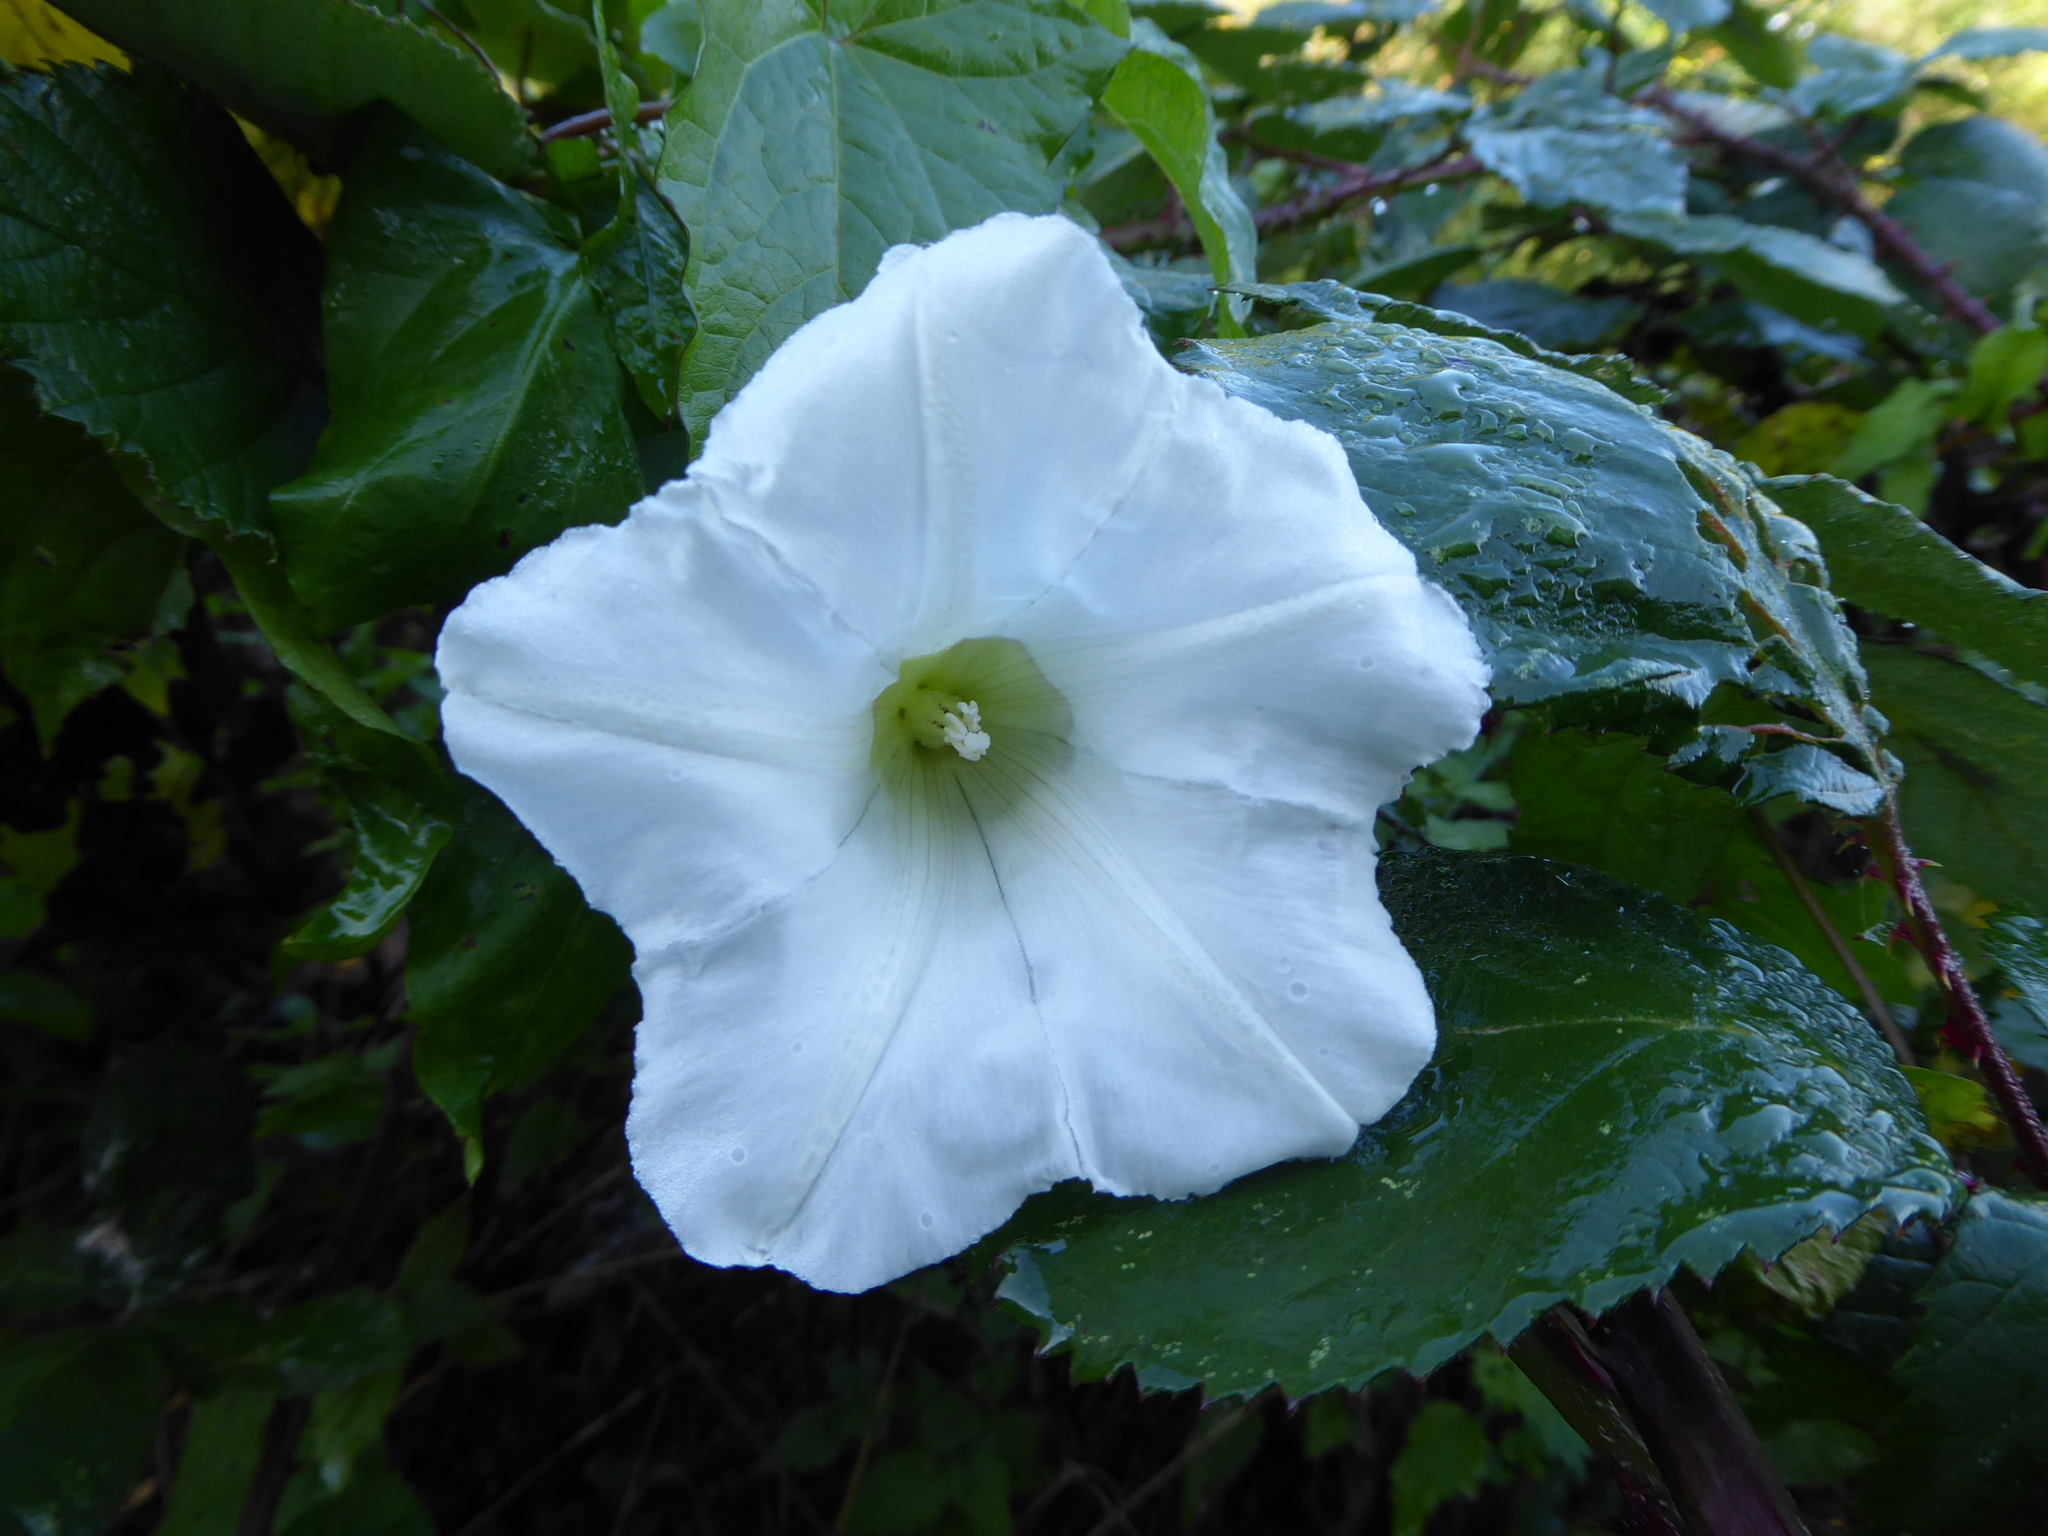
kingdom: Plantae
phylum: Tracheophyta
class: Magnoliopsida
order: Solanales
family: Convolvulaceae
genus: Calystegia
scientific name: Calystegia silvatica
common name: Large bindweed
